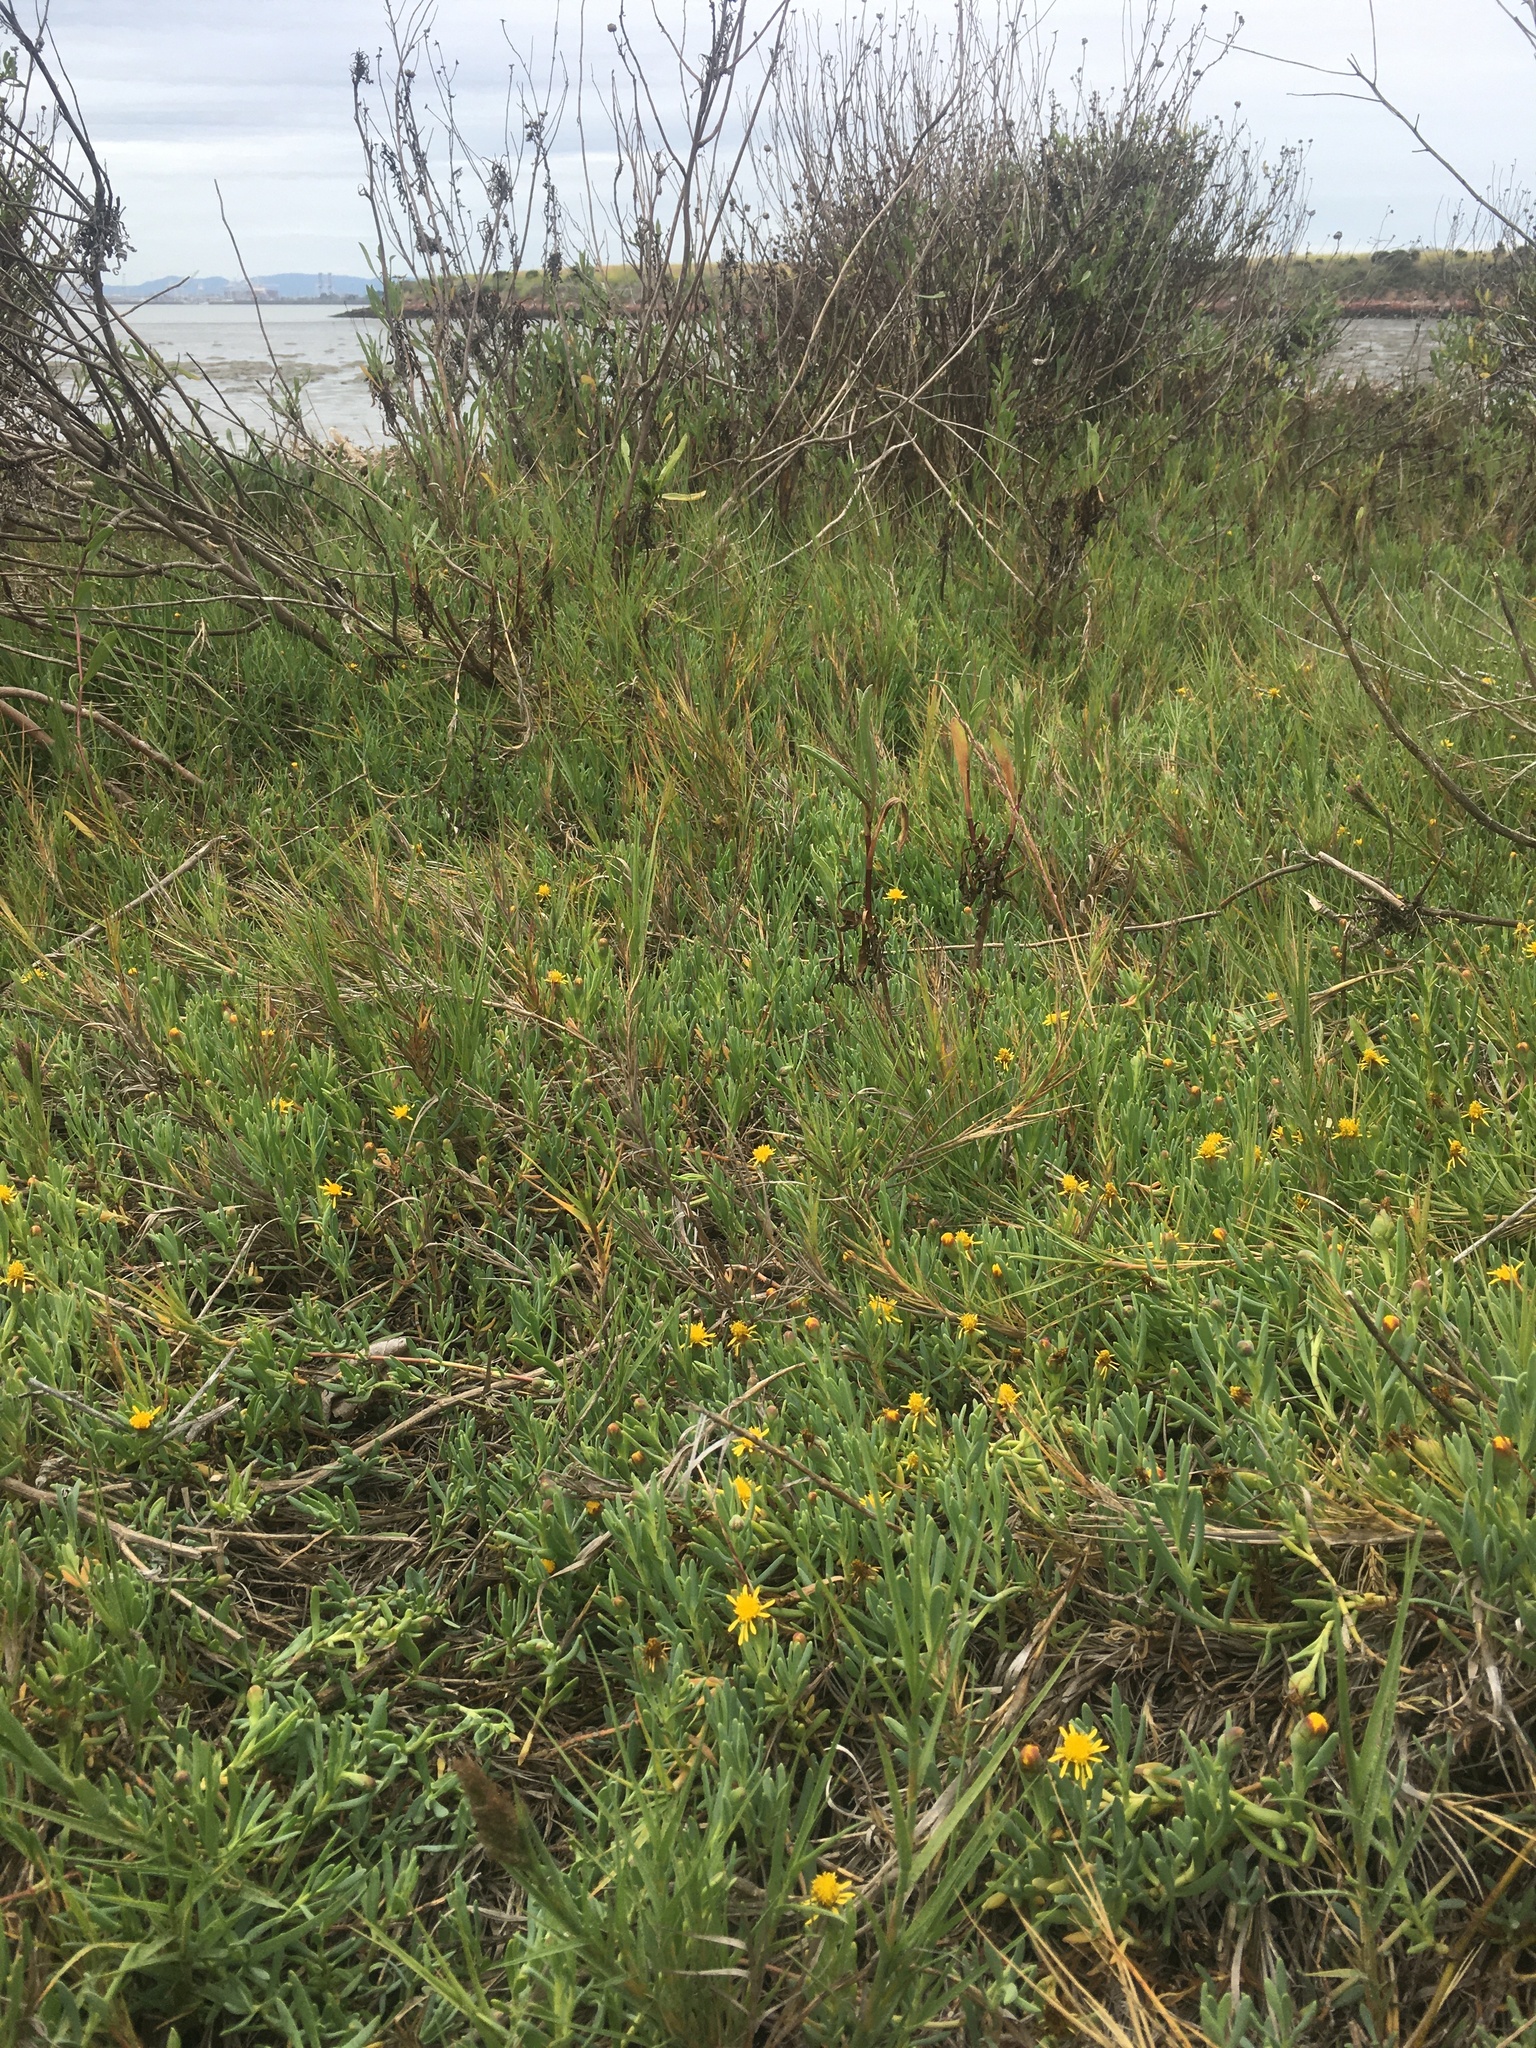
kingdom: Plantae
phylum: Tracheophyta
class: Magnoliopsida
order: Asterales
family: Asteraceae
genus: Jaumea
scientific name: Jaumea carnosa
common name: Fleshy jaumea
